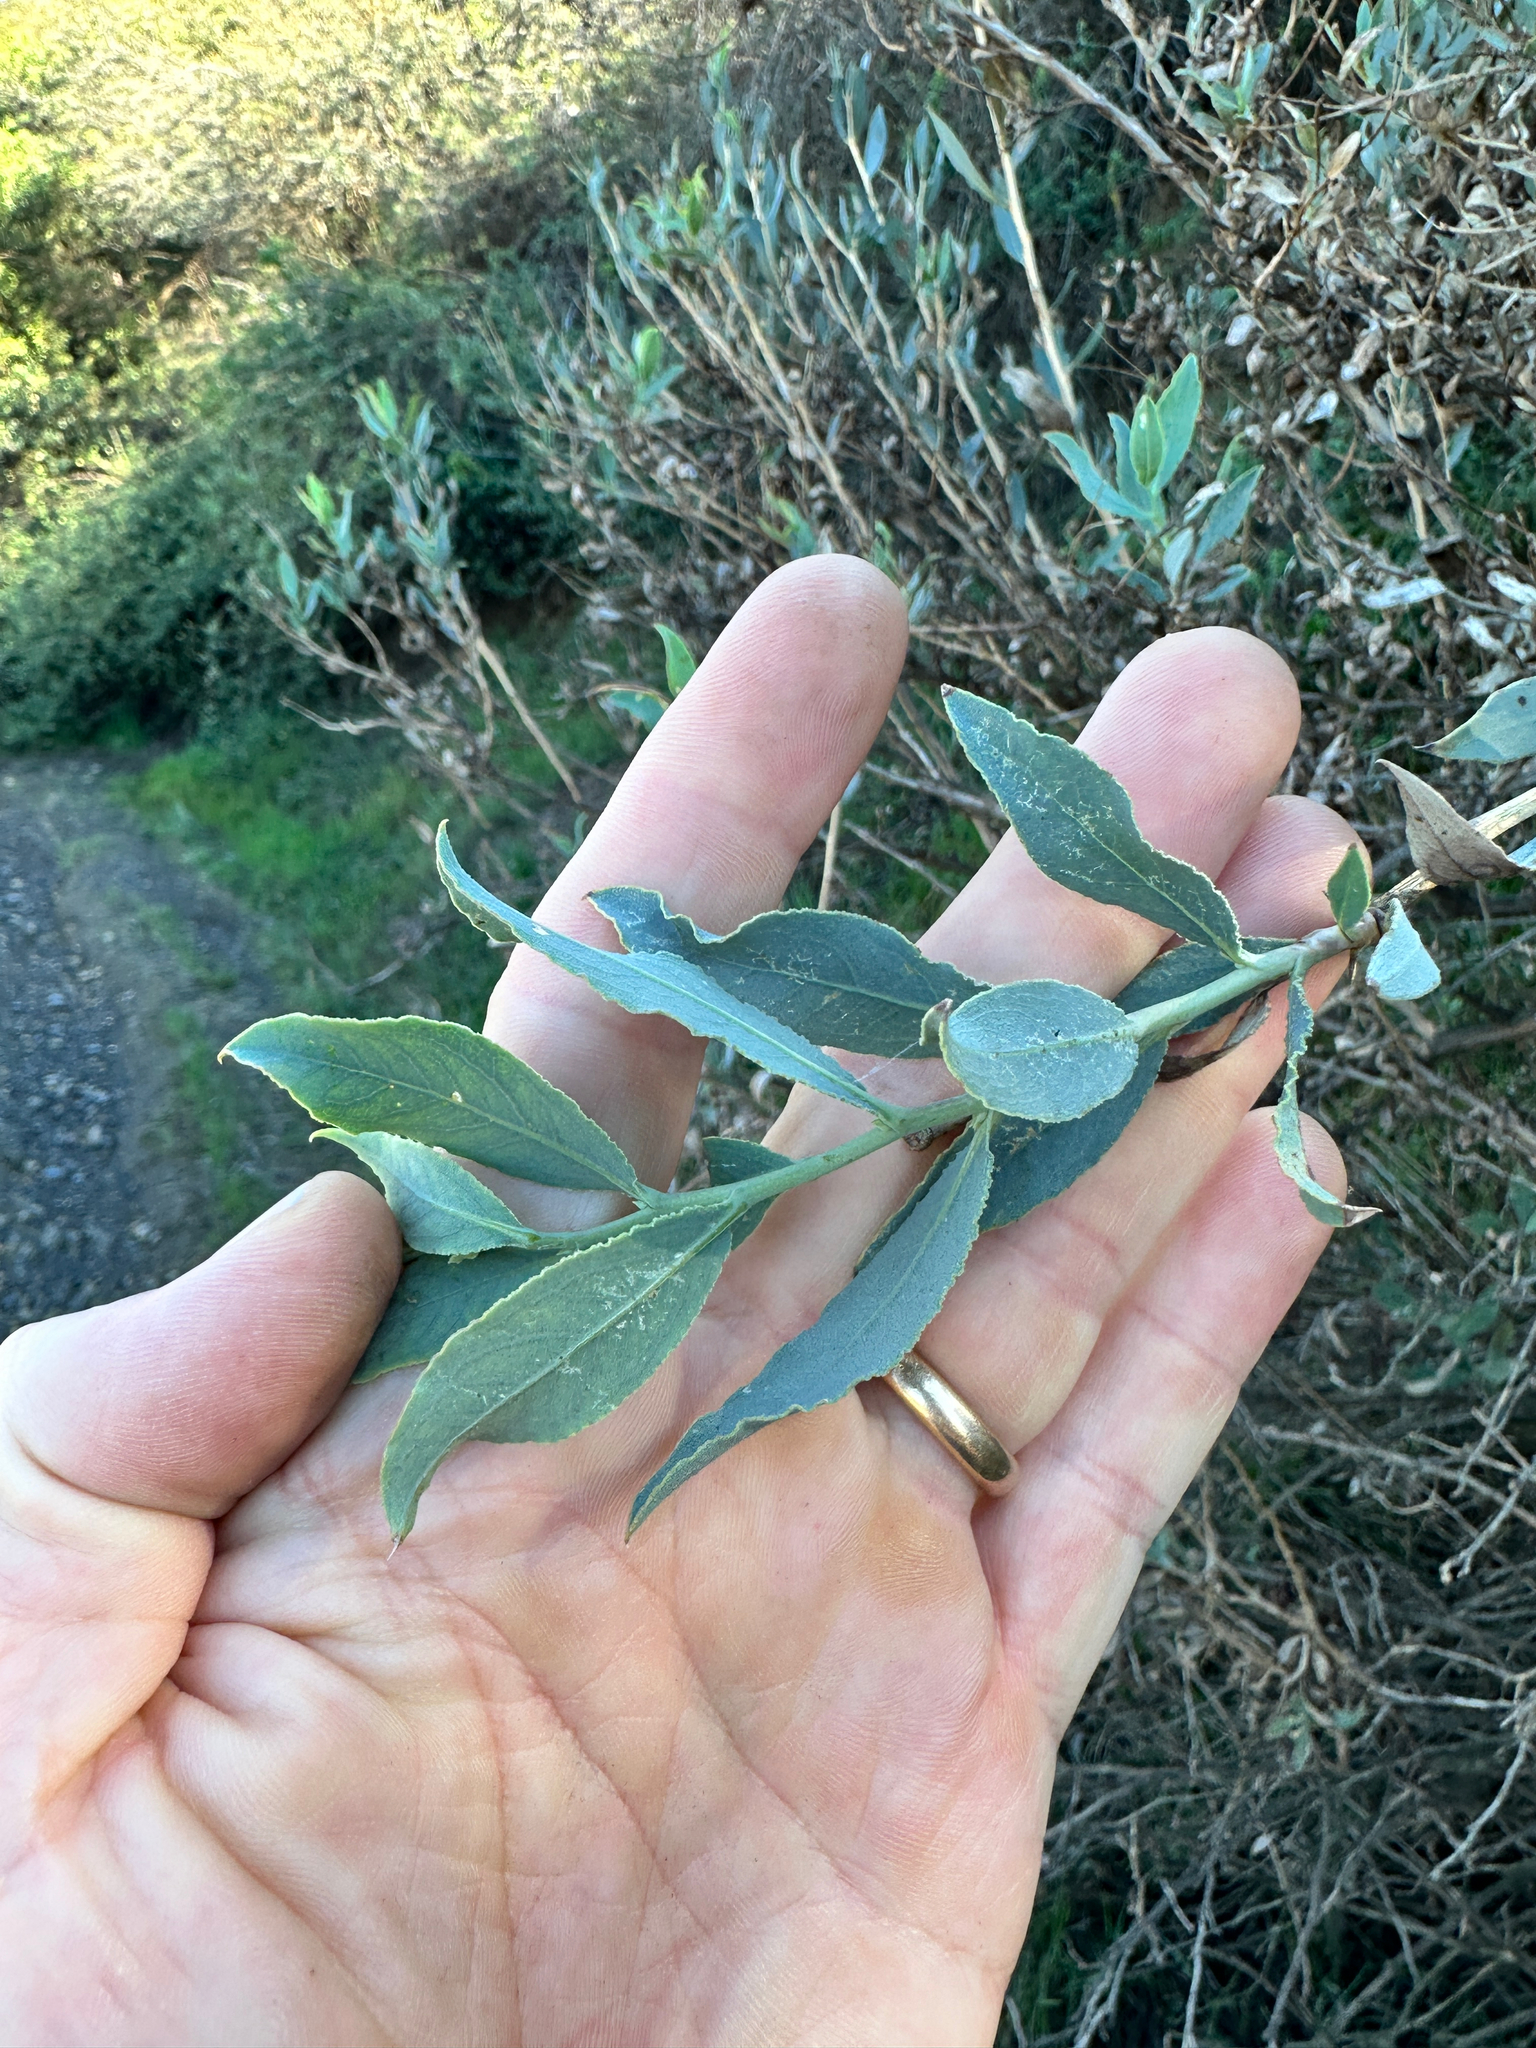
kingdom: Plantae
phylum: Tracheophyta
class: Magnoliopsida
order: Ranunculales
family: Papaveraceae
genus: Dendromecon
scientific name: Dendromecon rigida
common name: Tree poppy
